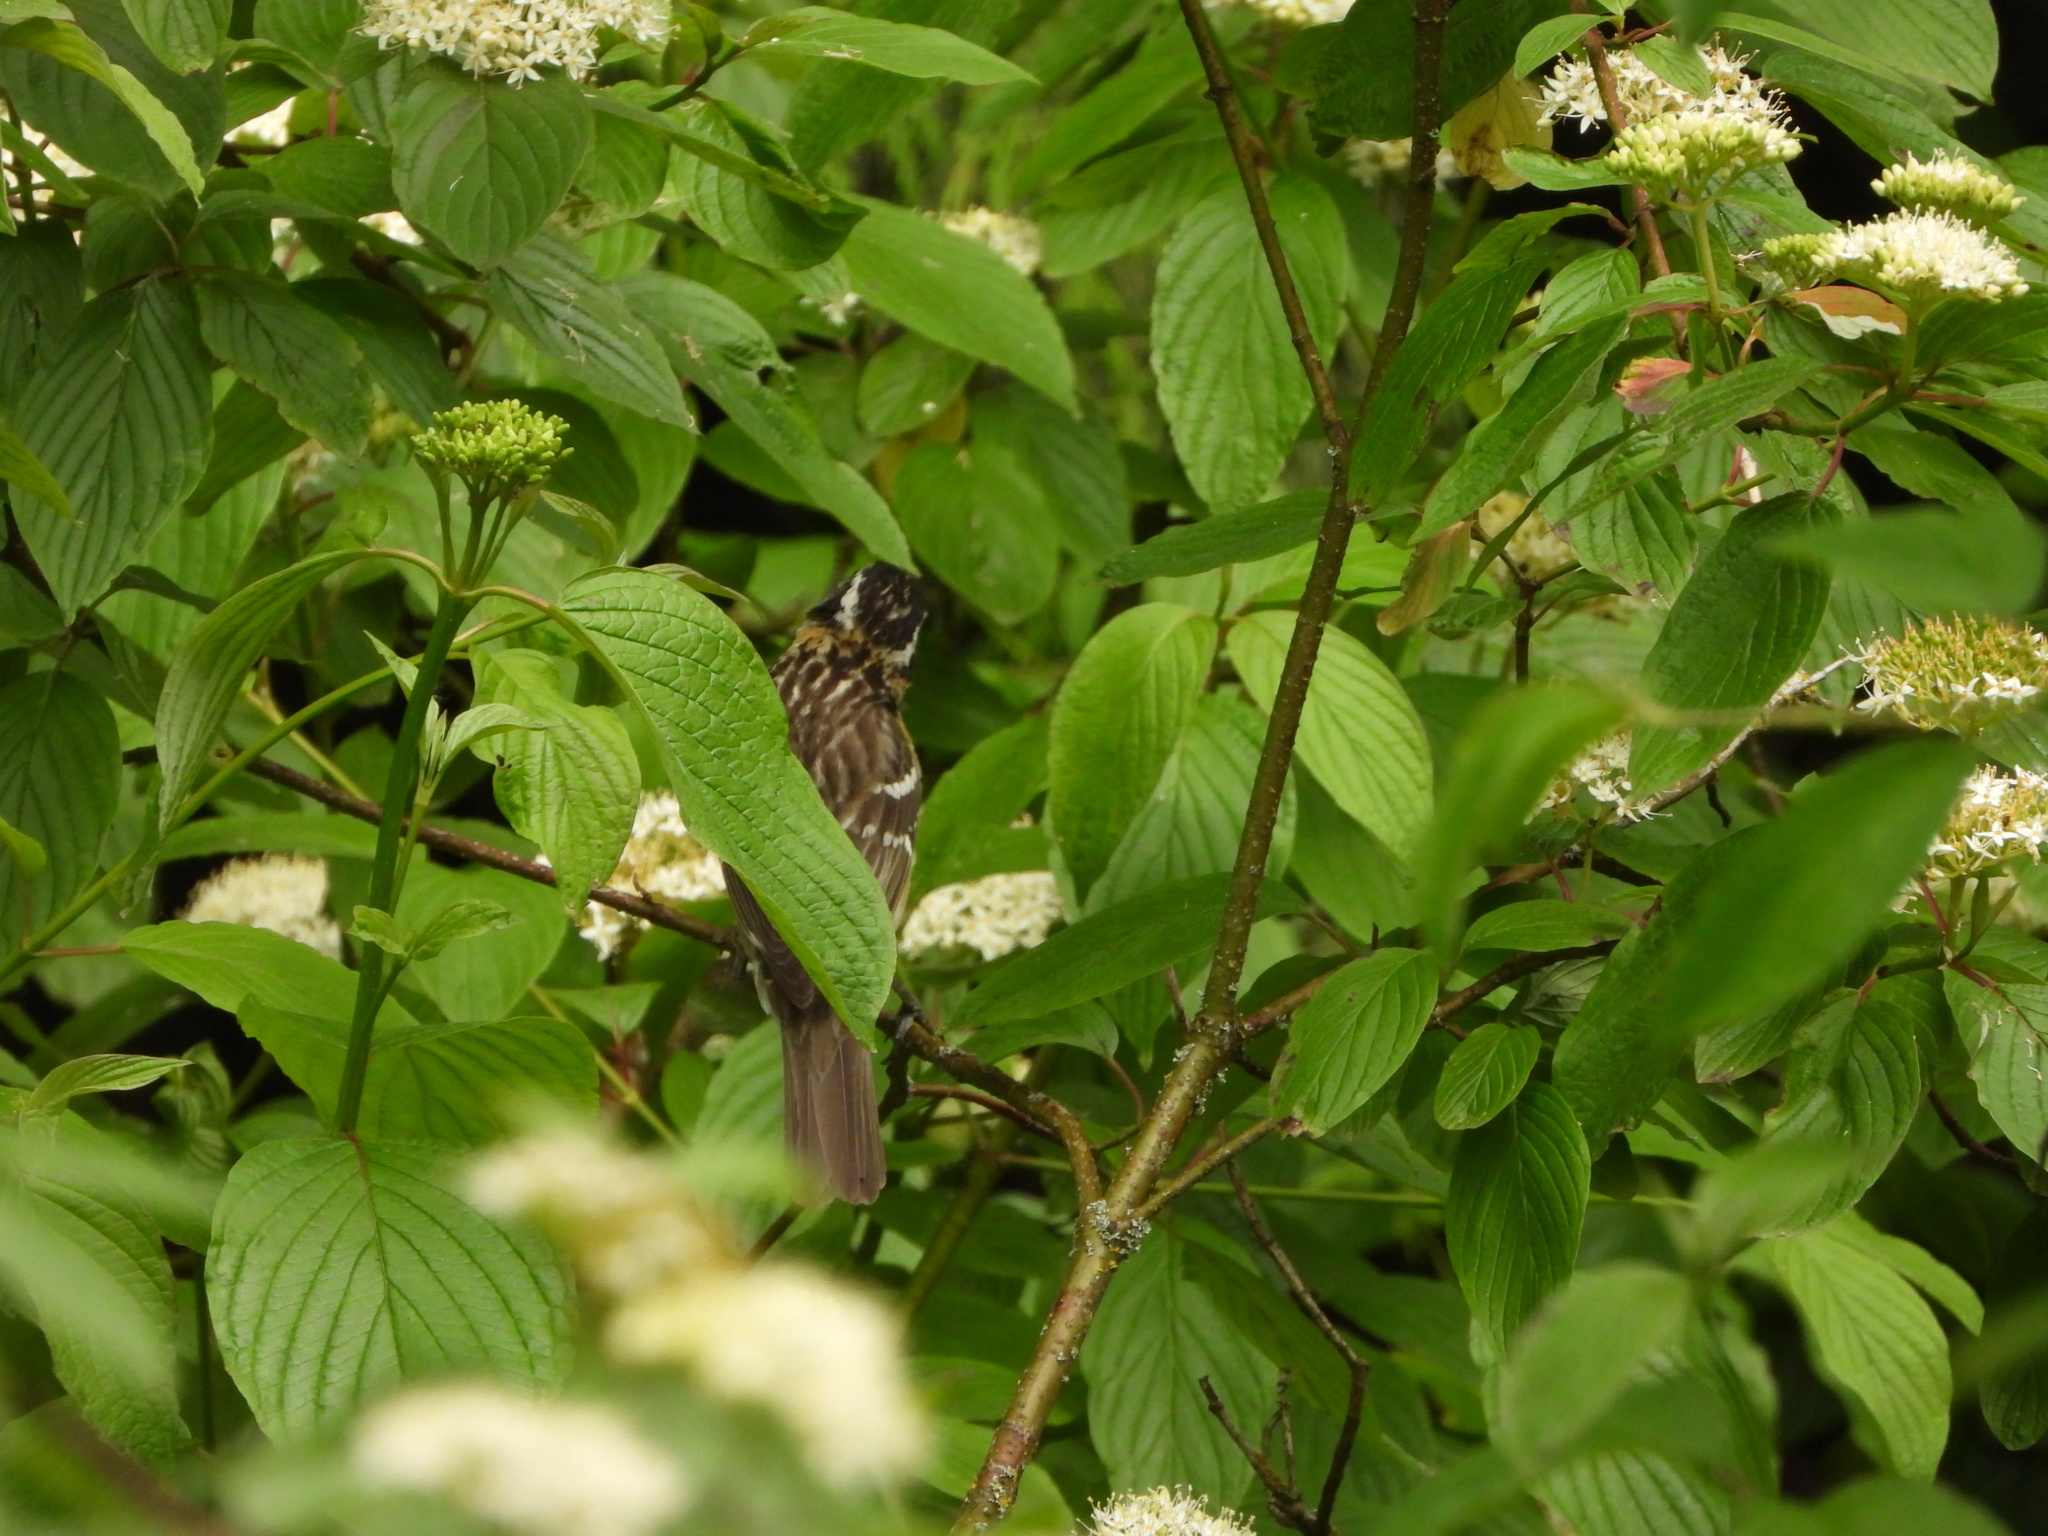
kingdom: Animalia
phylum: Chordata
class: Aves
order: Passeriformes
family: Cardinalidae
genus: Pheucticus
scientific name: Pheucticus melanocephalus
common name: Black-headed grosbeak
